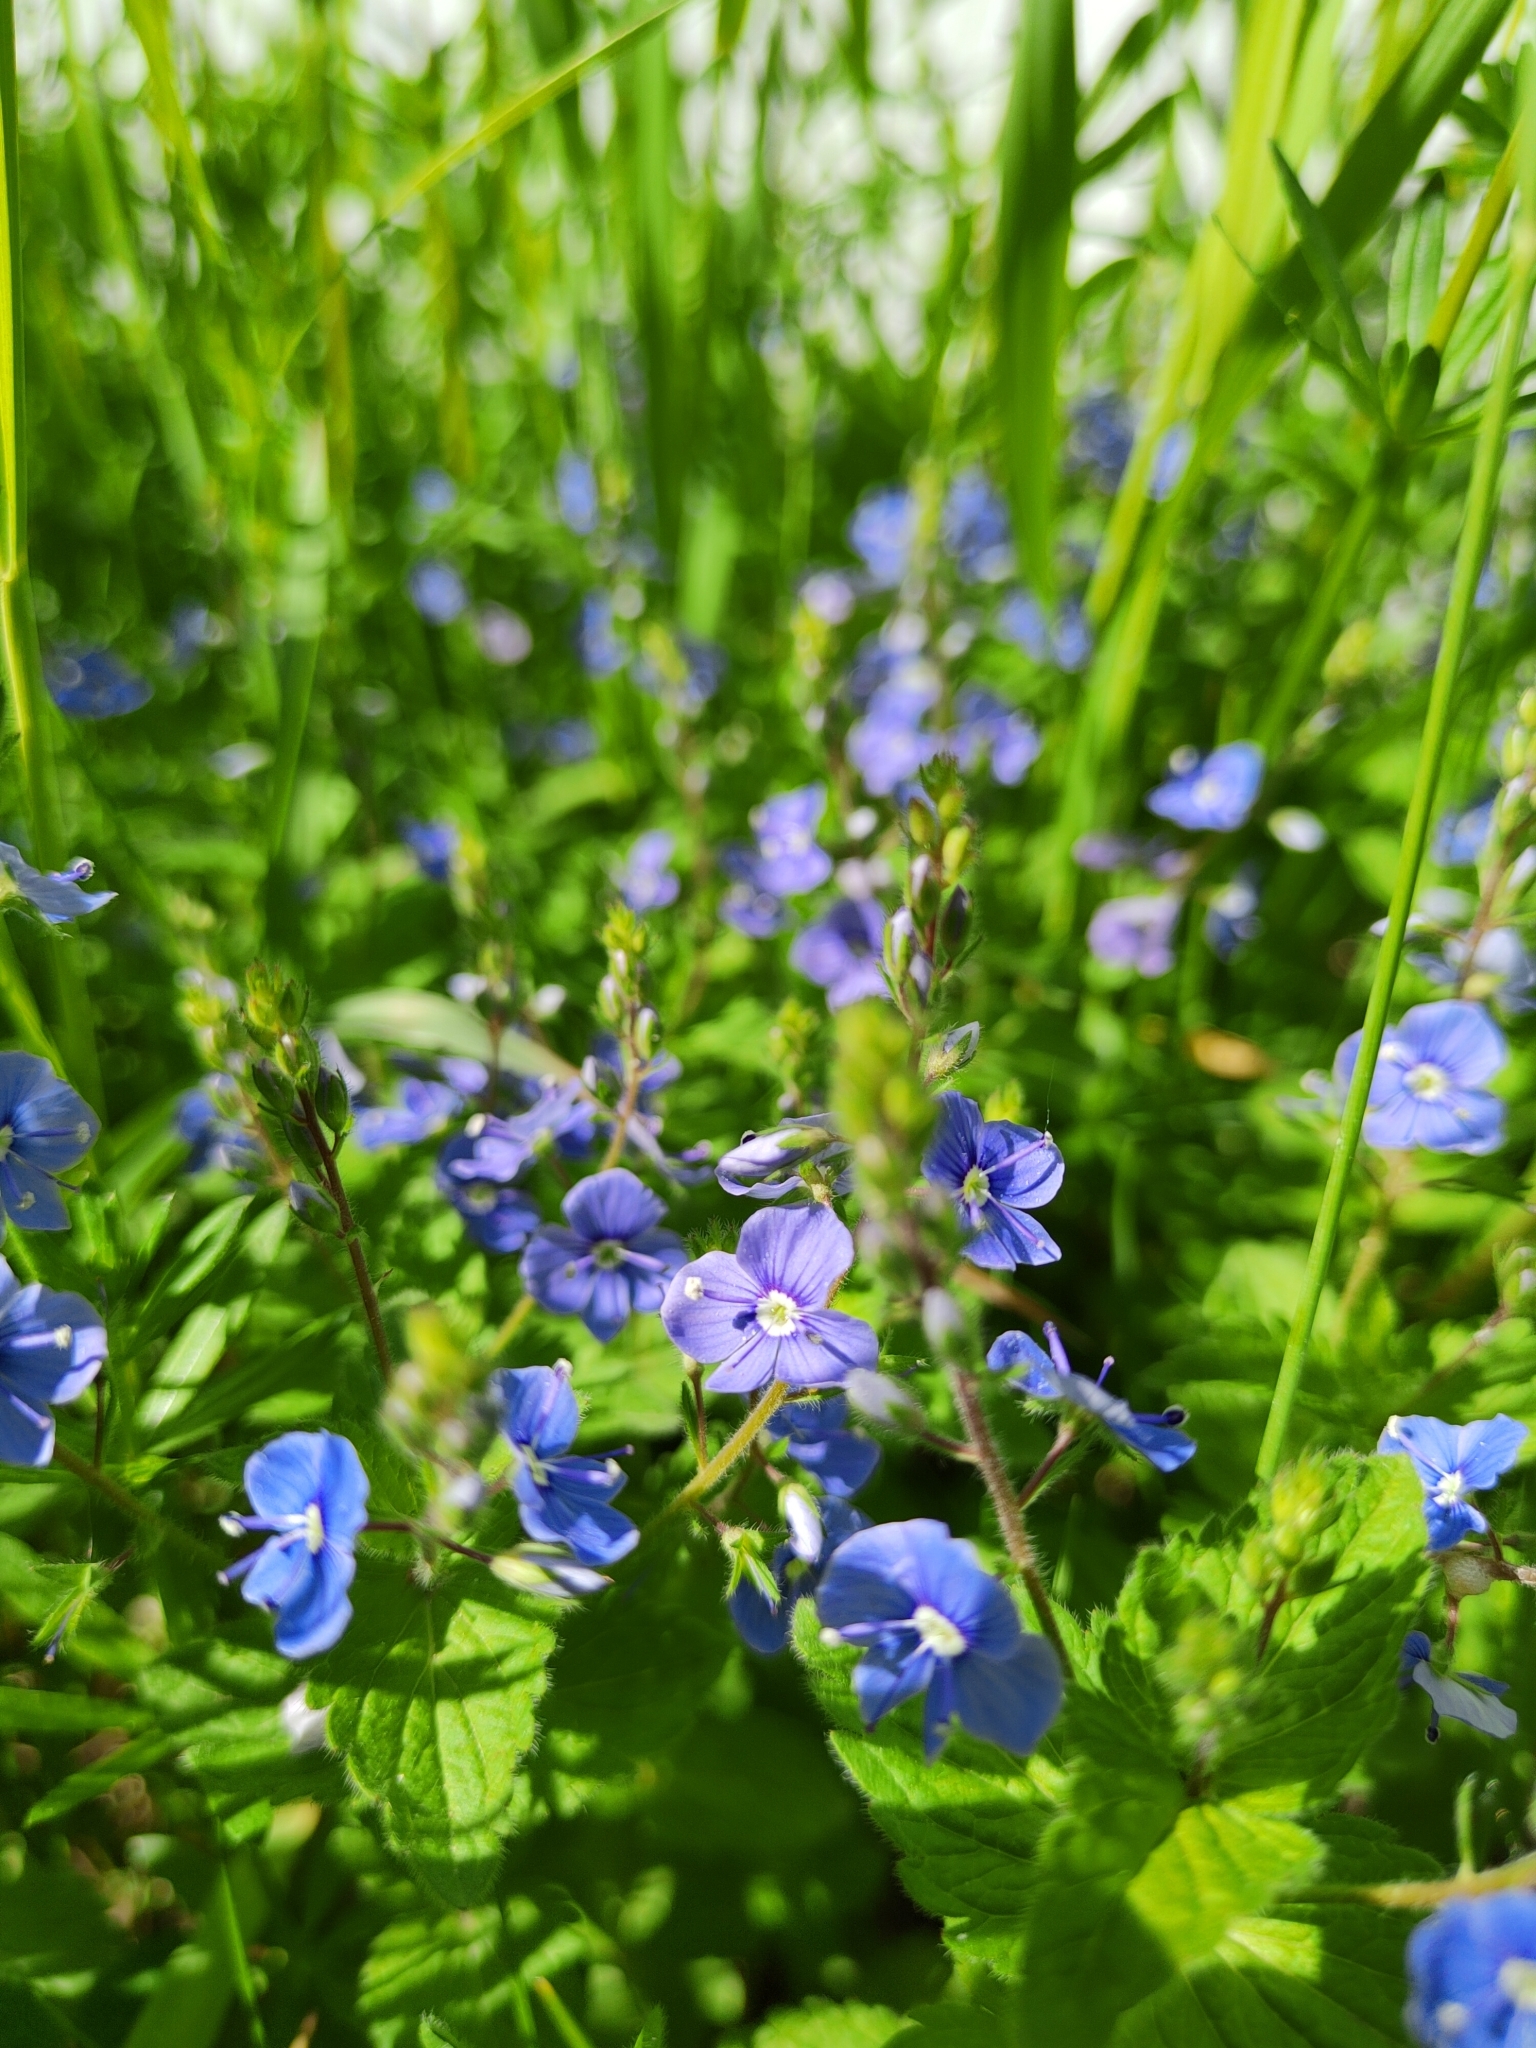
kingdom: Plantae
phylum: Tracheophyta
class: Magnoliopsida
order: Lamiales
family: Plantaginaceae
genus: Veronica
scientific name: Veronica chamaedrys
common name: Germander speedwell
